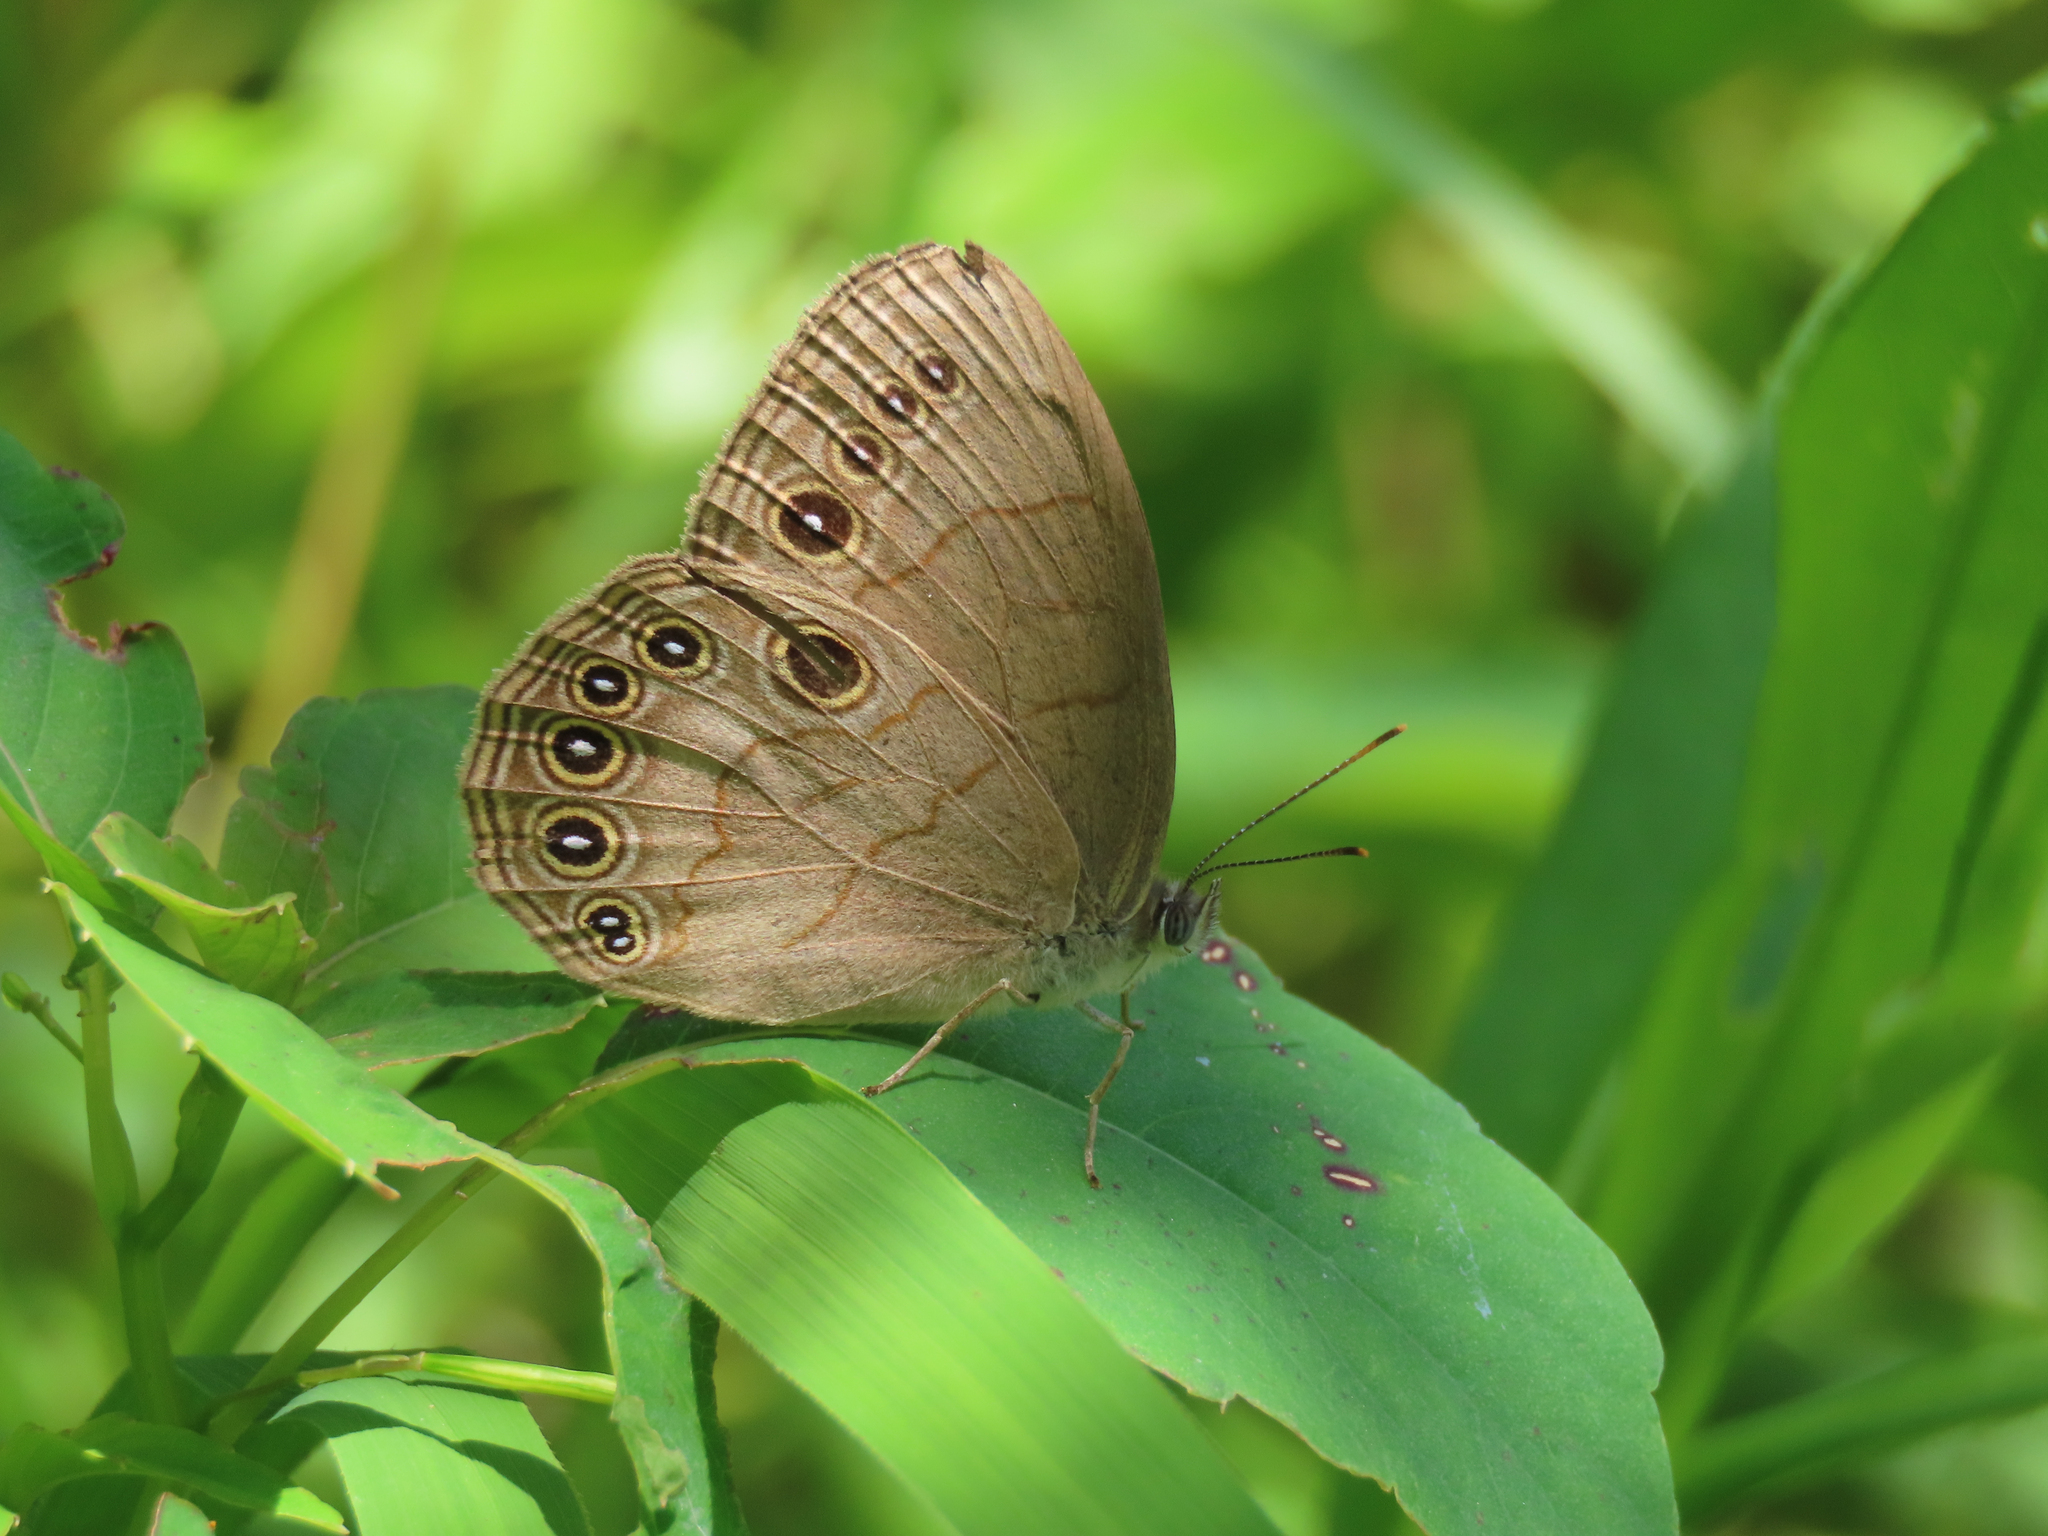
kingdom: Animalia
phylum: Arthropoda
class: Insecta
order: Lepidoptera
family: Nymphalidae
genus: Lethe
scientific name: Lethe eurydice
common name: Eyed brown
